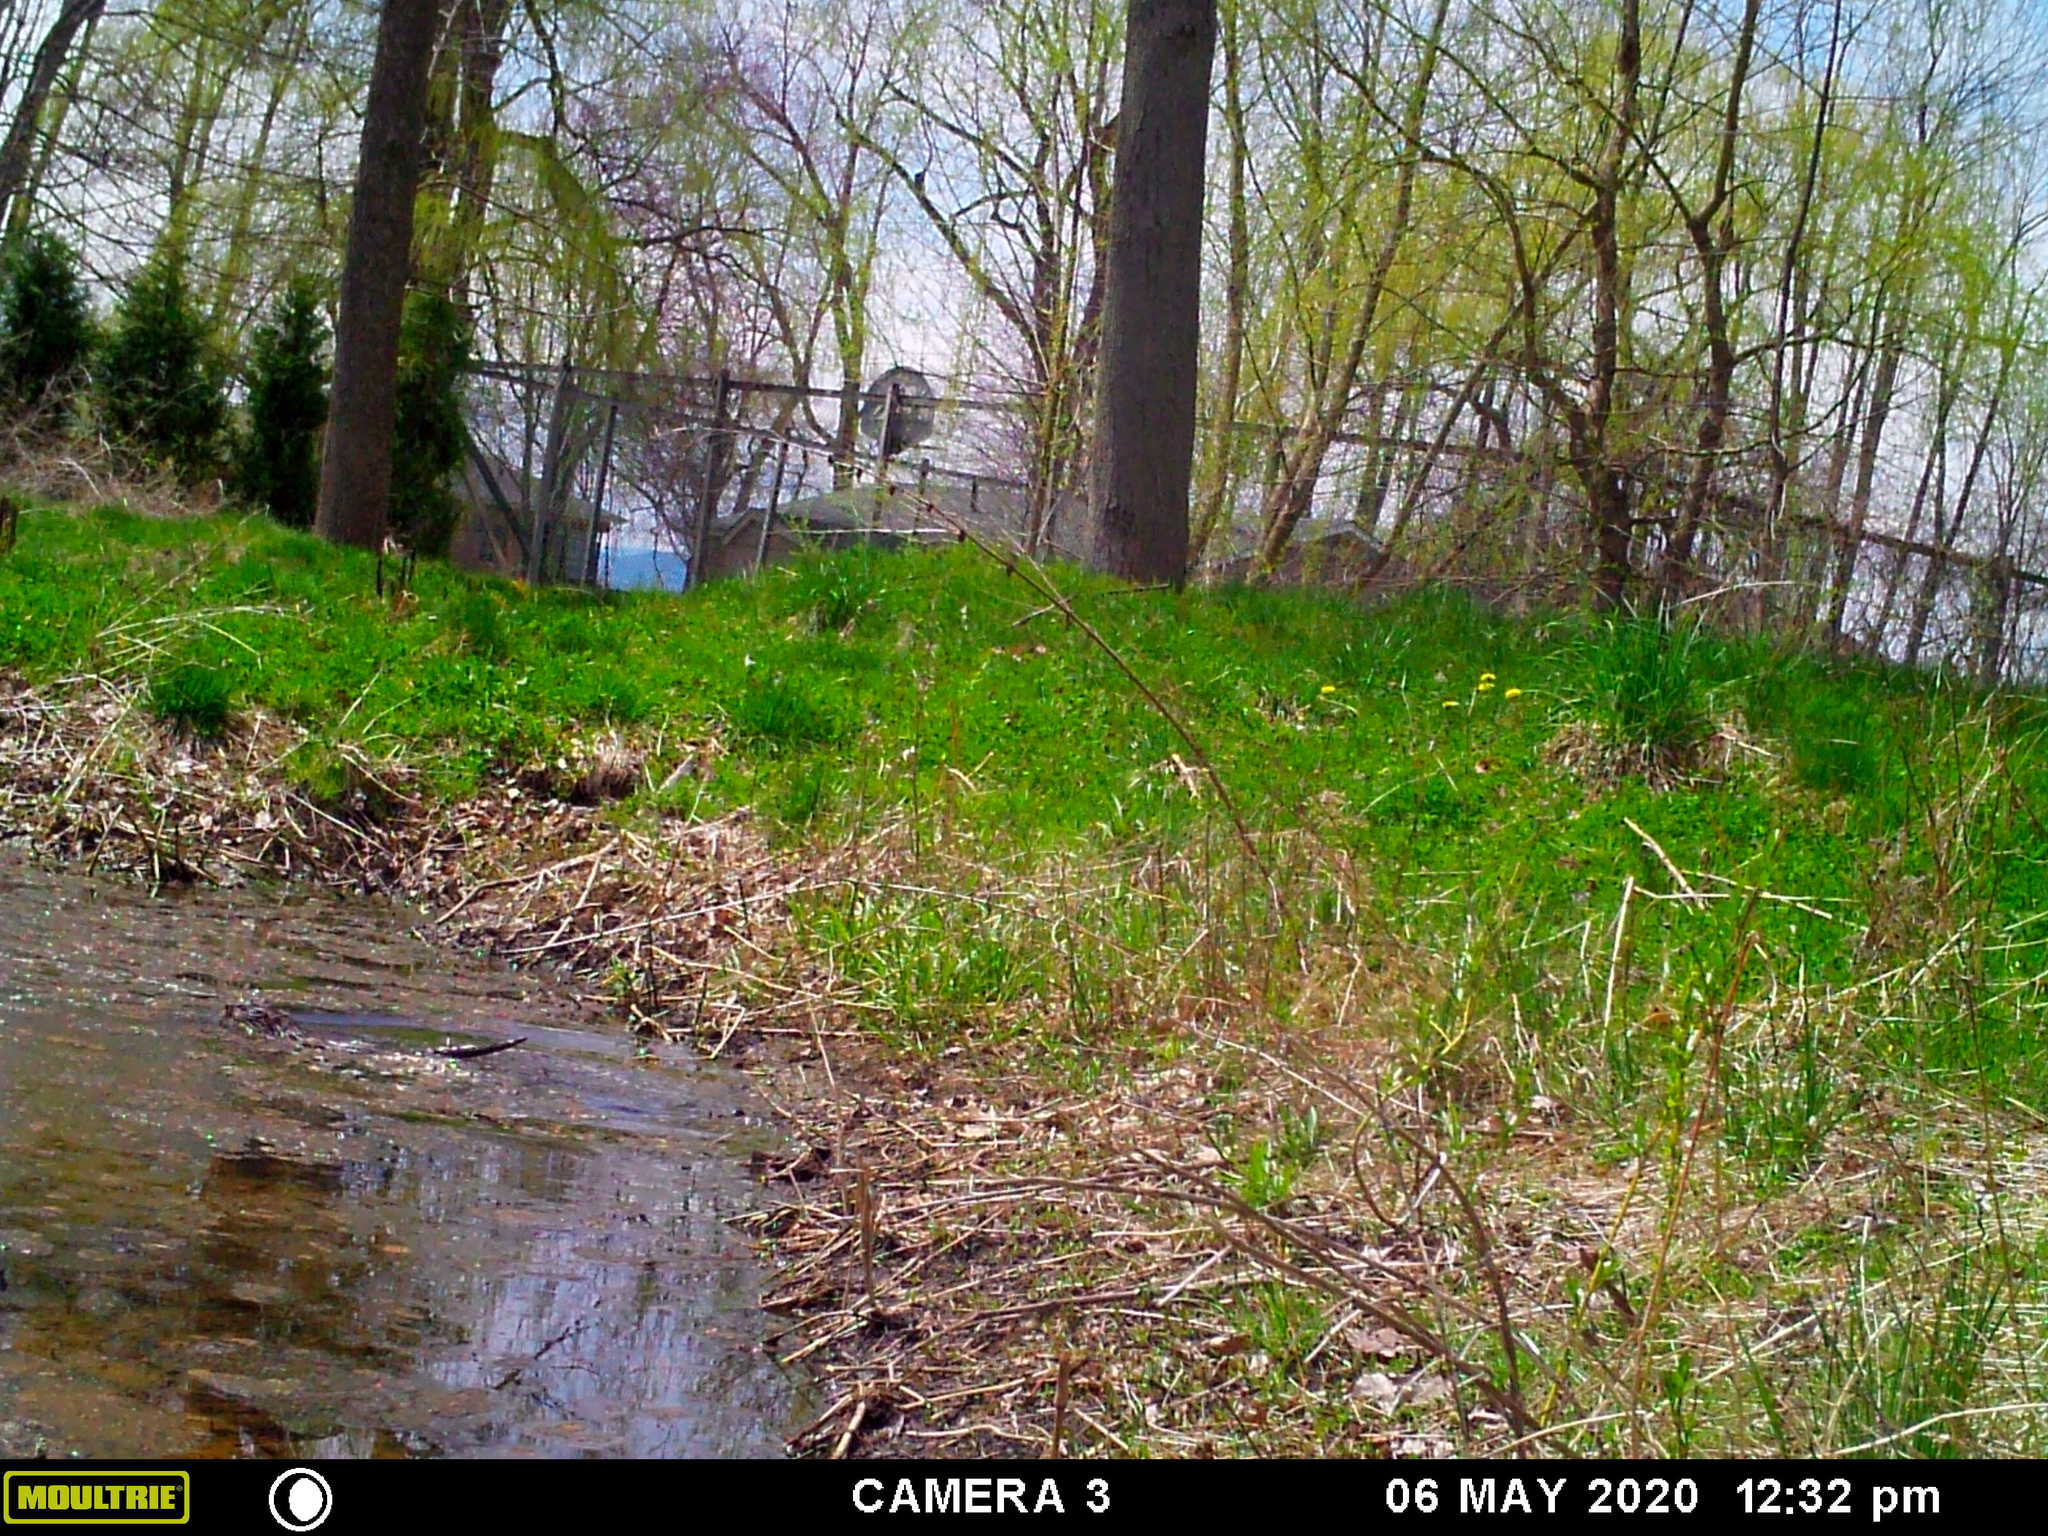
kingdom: Animalia
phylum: Chordata
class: Mammalia
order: Rodentia
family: Cricetidae
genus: Ondatra
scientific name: Ondatra zibethicus
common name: Muskrat
